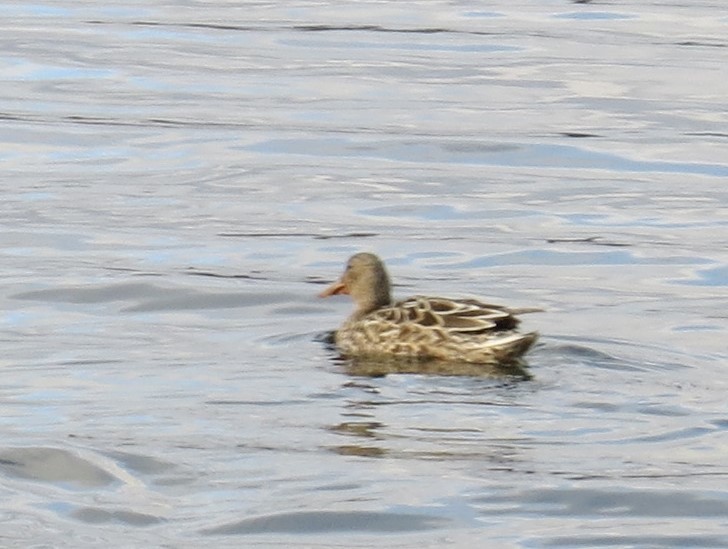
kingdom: Animalia
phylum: Chordata
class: Aves
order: Anseriformes
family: Anatidae
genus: Spatula
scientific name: Spatula clypeata
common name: Northern shoveler
